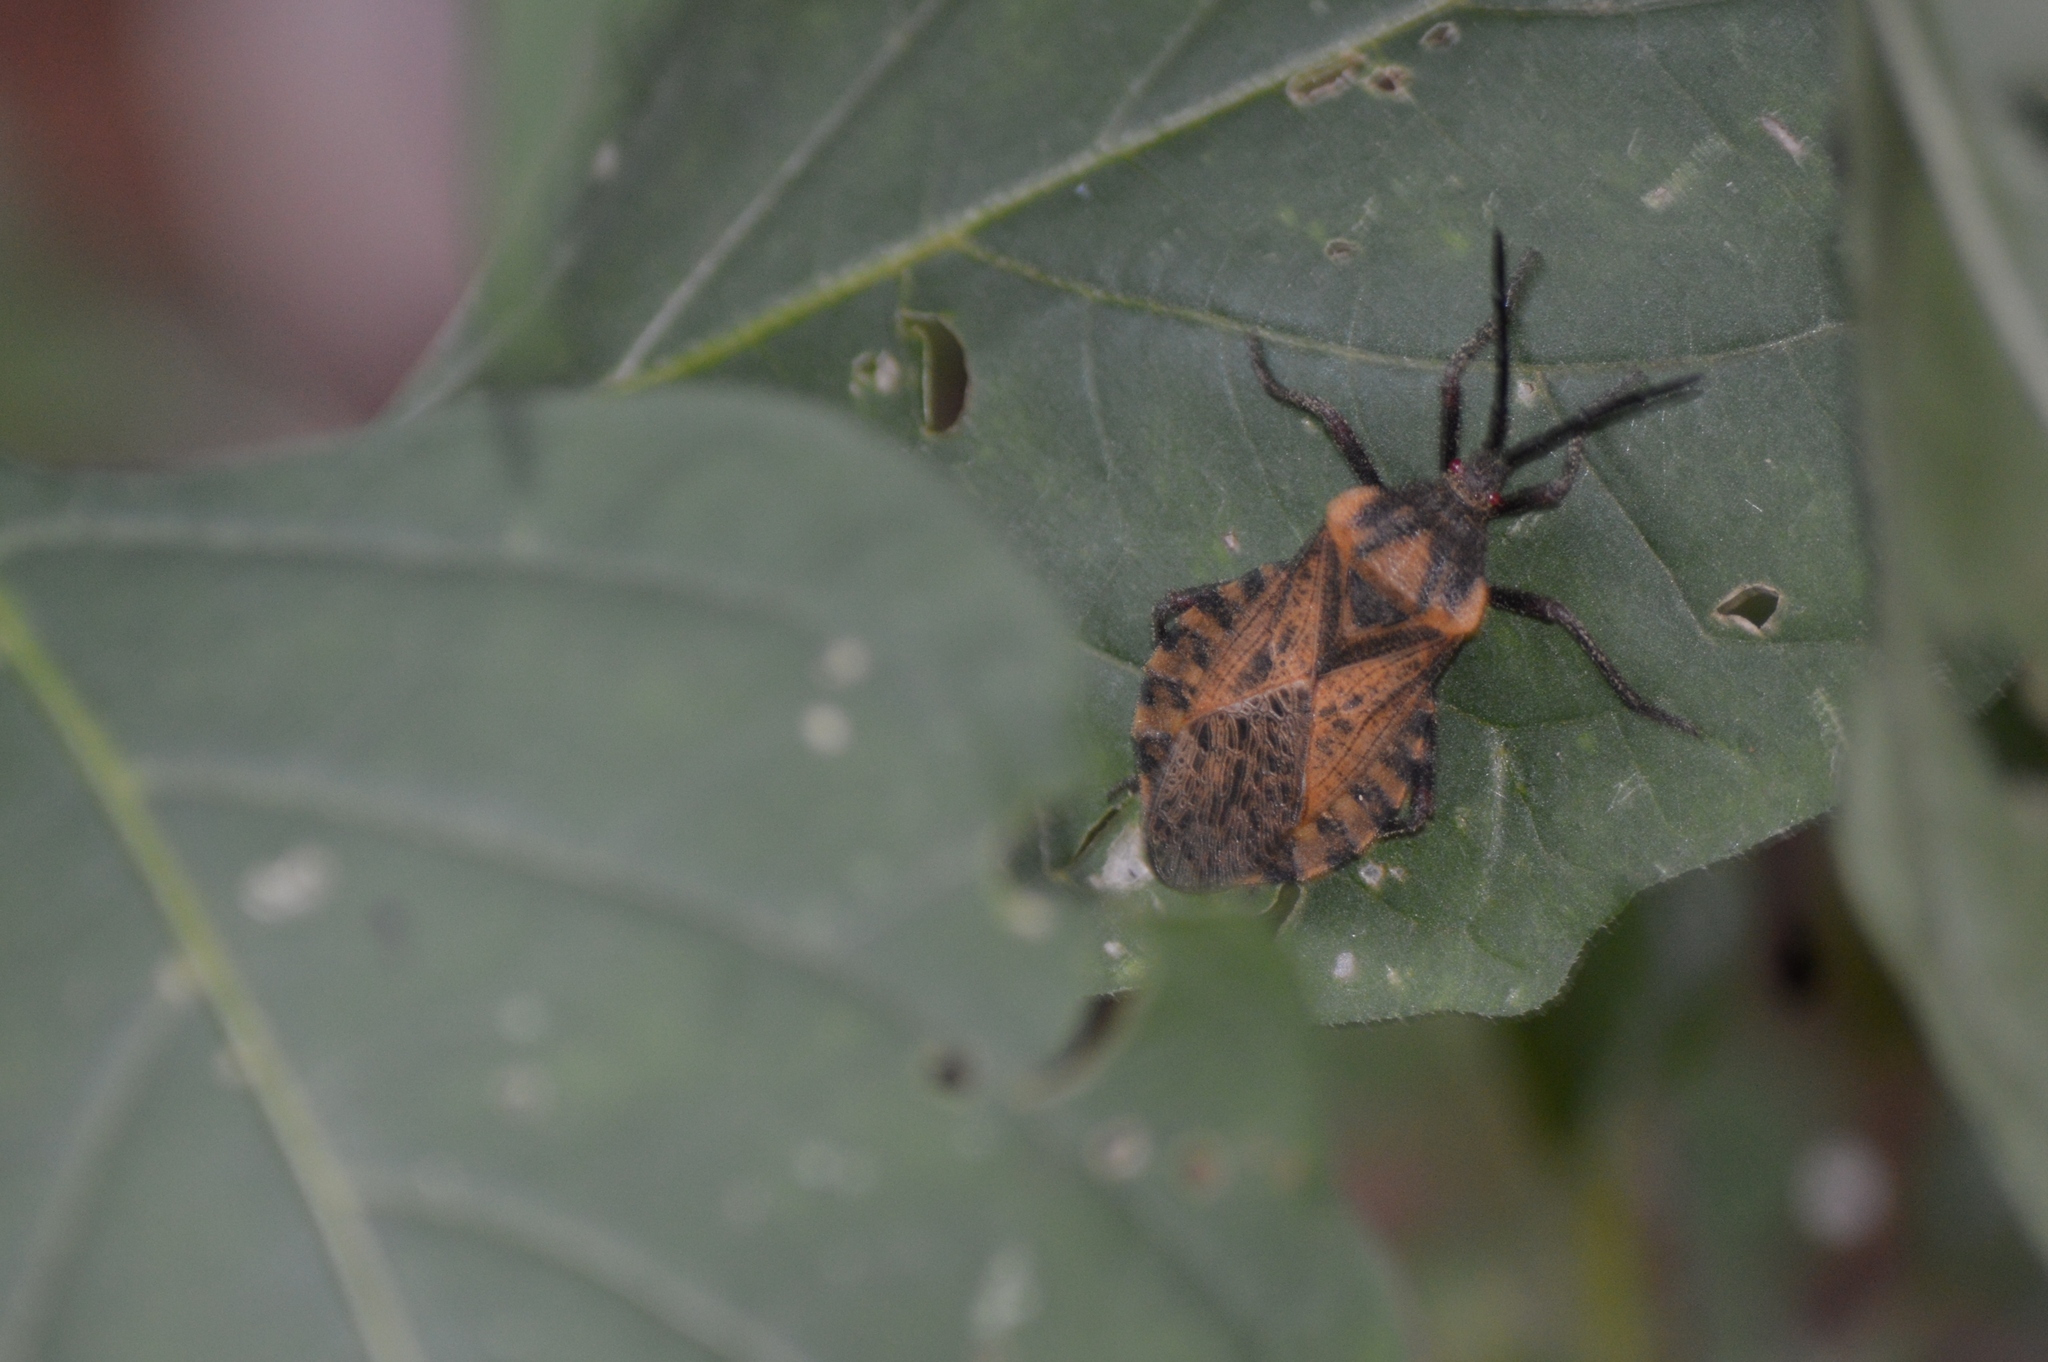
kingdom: Animalia
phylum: Arthropoda
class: Insecta
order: Hemiptera
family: Coreidae
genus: Spartocera
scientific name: Spartocera fusca
